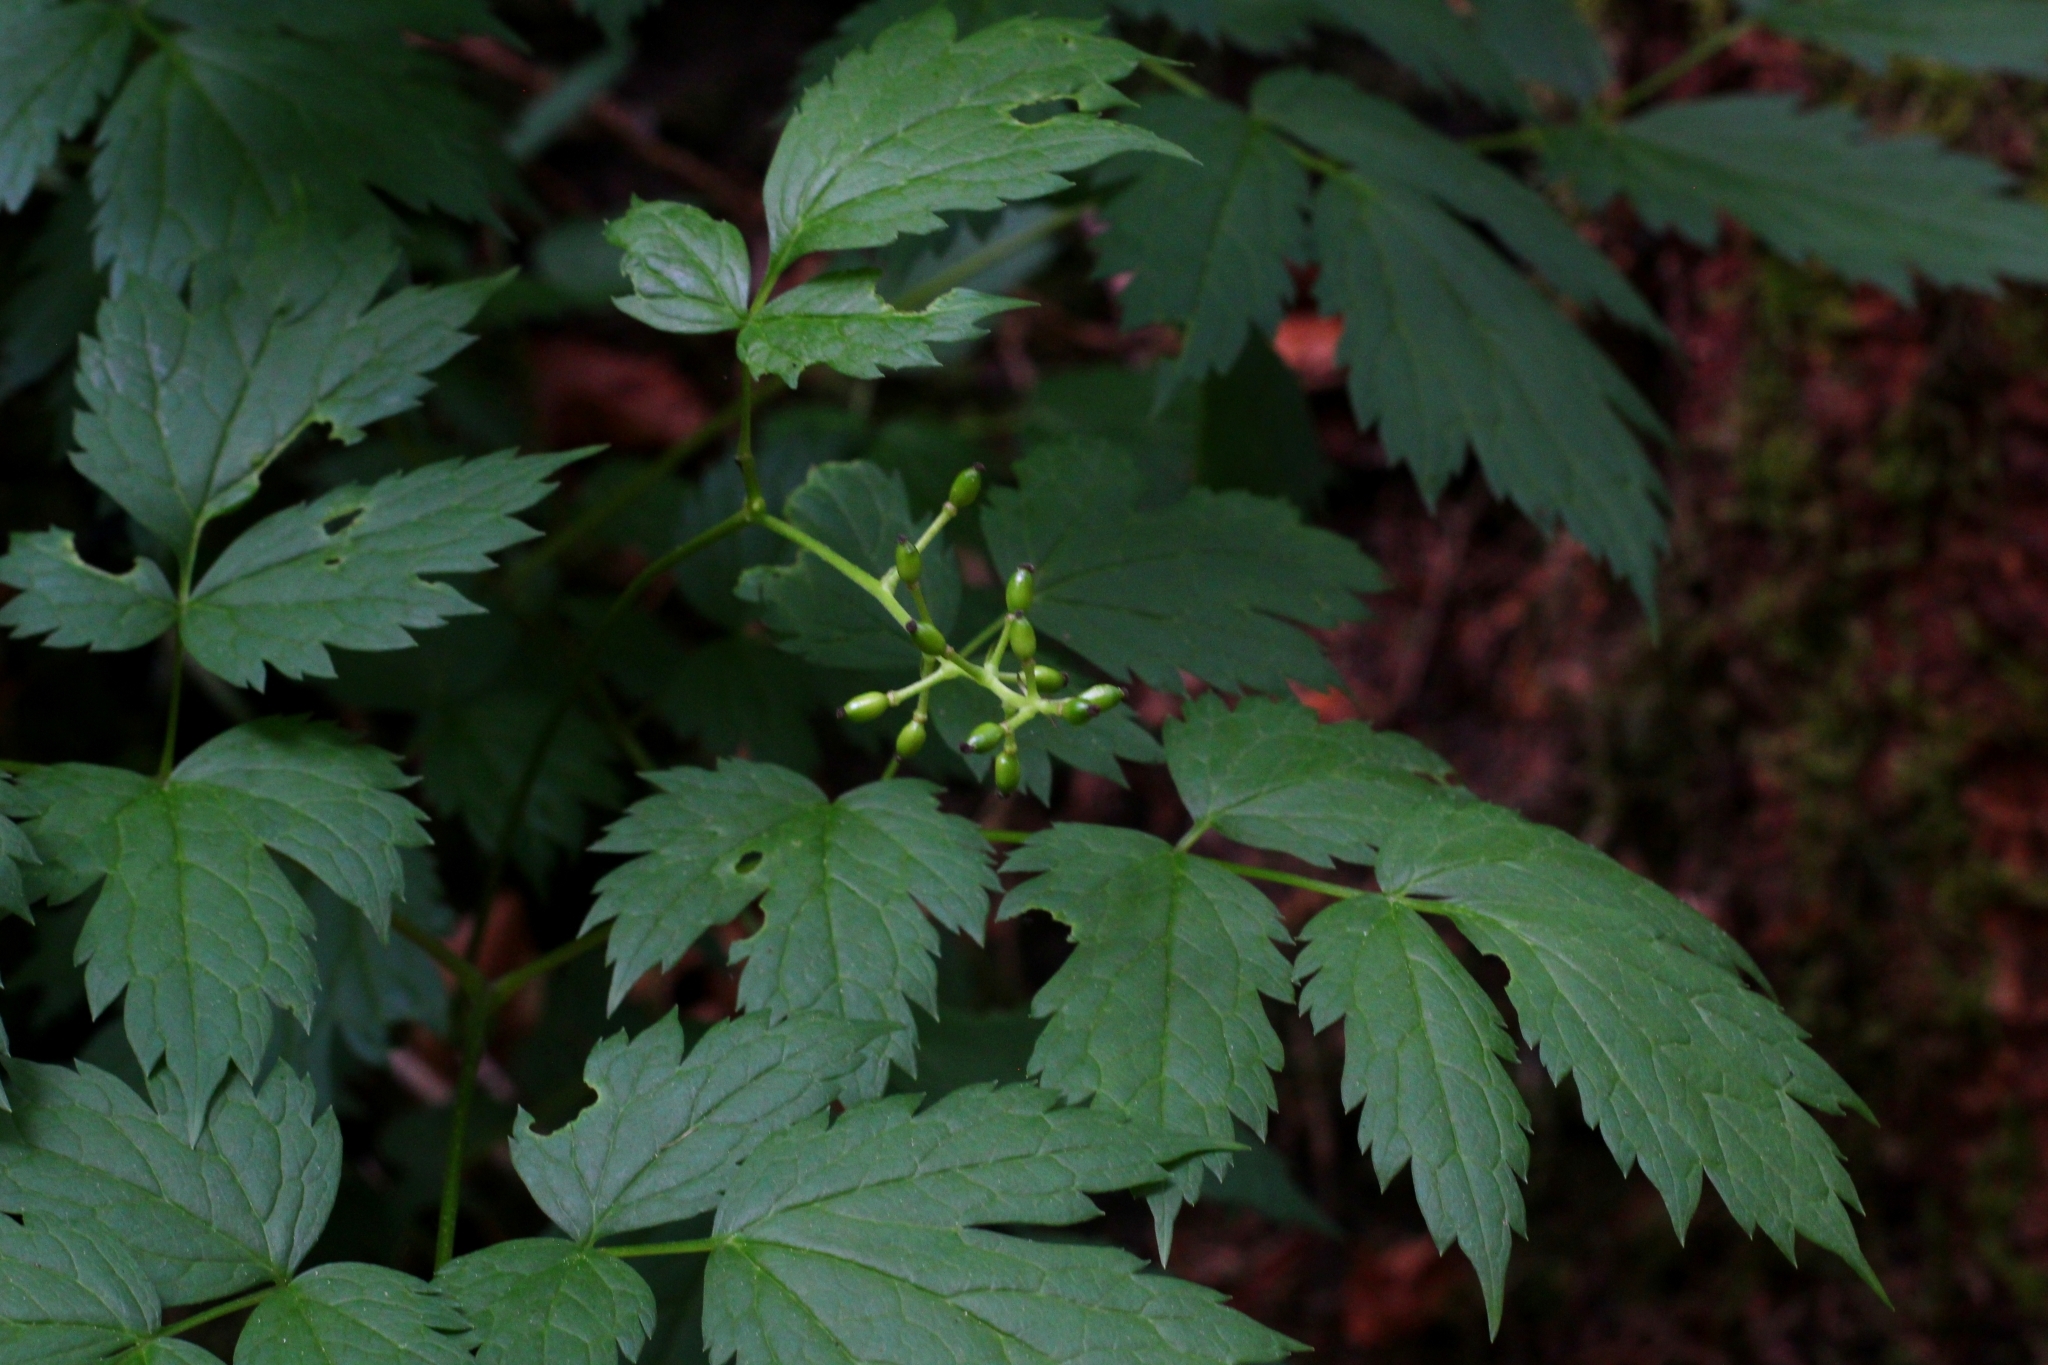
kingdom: Plantae
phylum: Tracheophyta
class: Magnoliopsida
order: Ranunculales
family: Ranunculaceae
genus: Actaea
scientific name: Actaea spicata
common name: Baneberry
